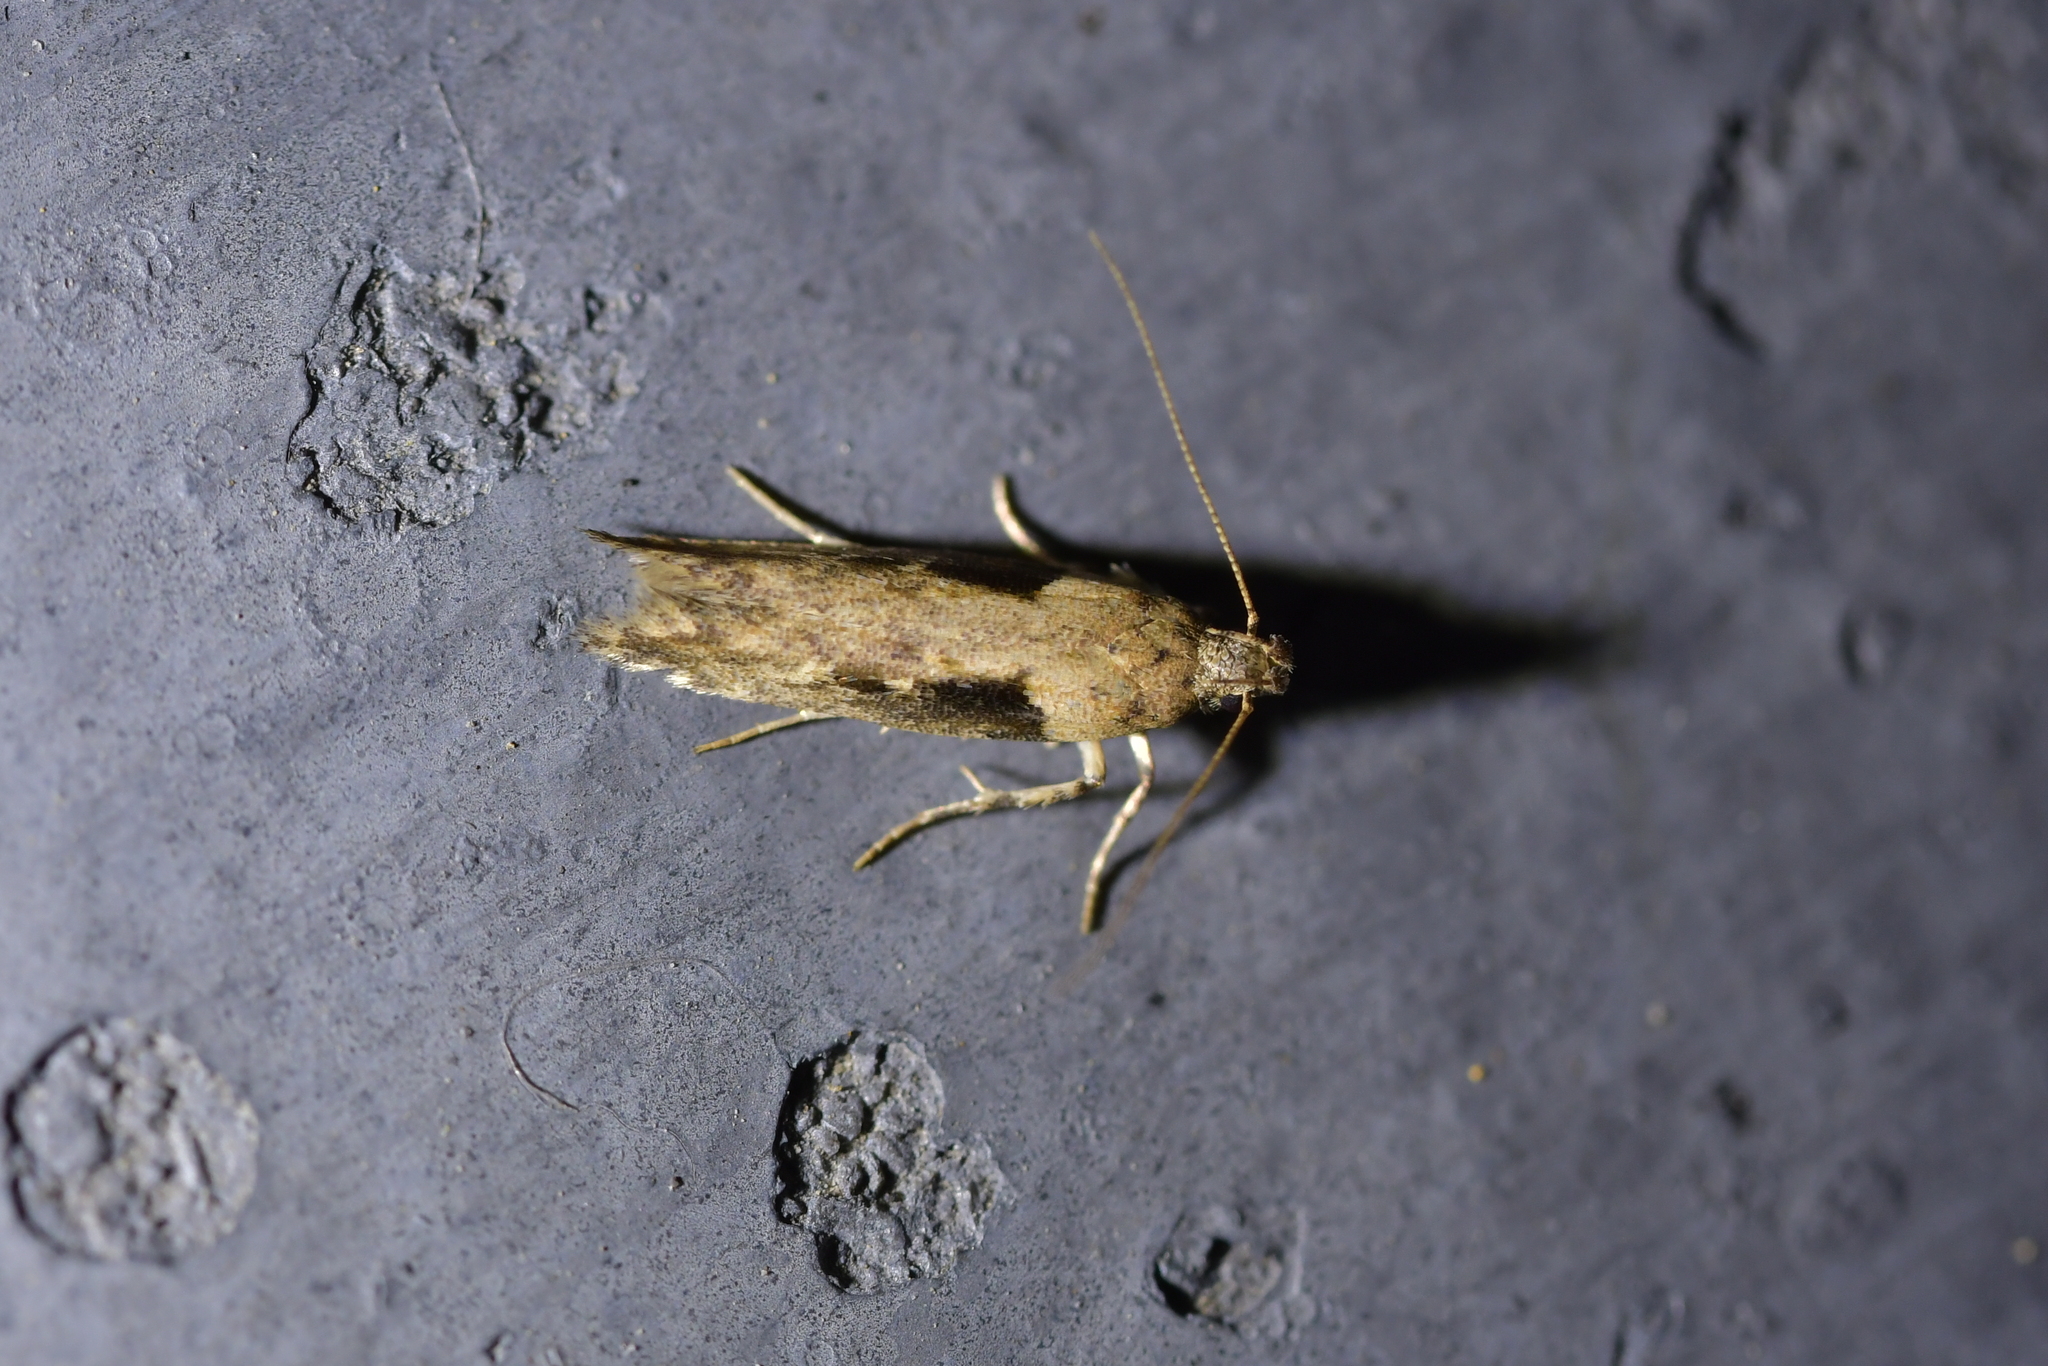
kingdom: Animalia
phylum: Arthropoda
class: Insecta
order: Lepidoptera
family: Gelechiidae
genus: Symmetrischema
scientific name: Symmetrischema tangolias
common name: Moth
